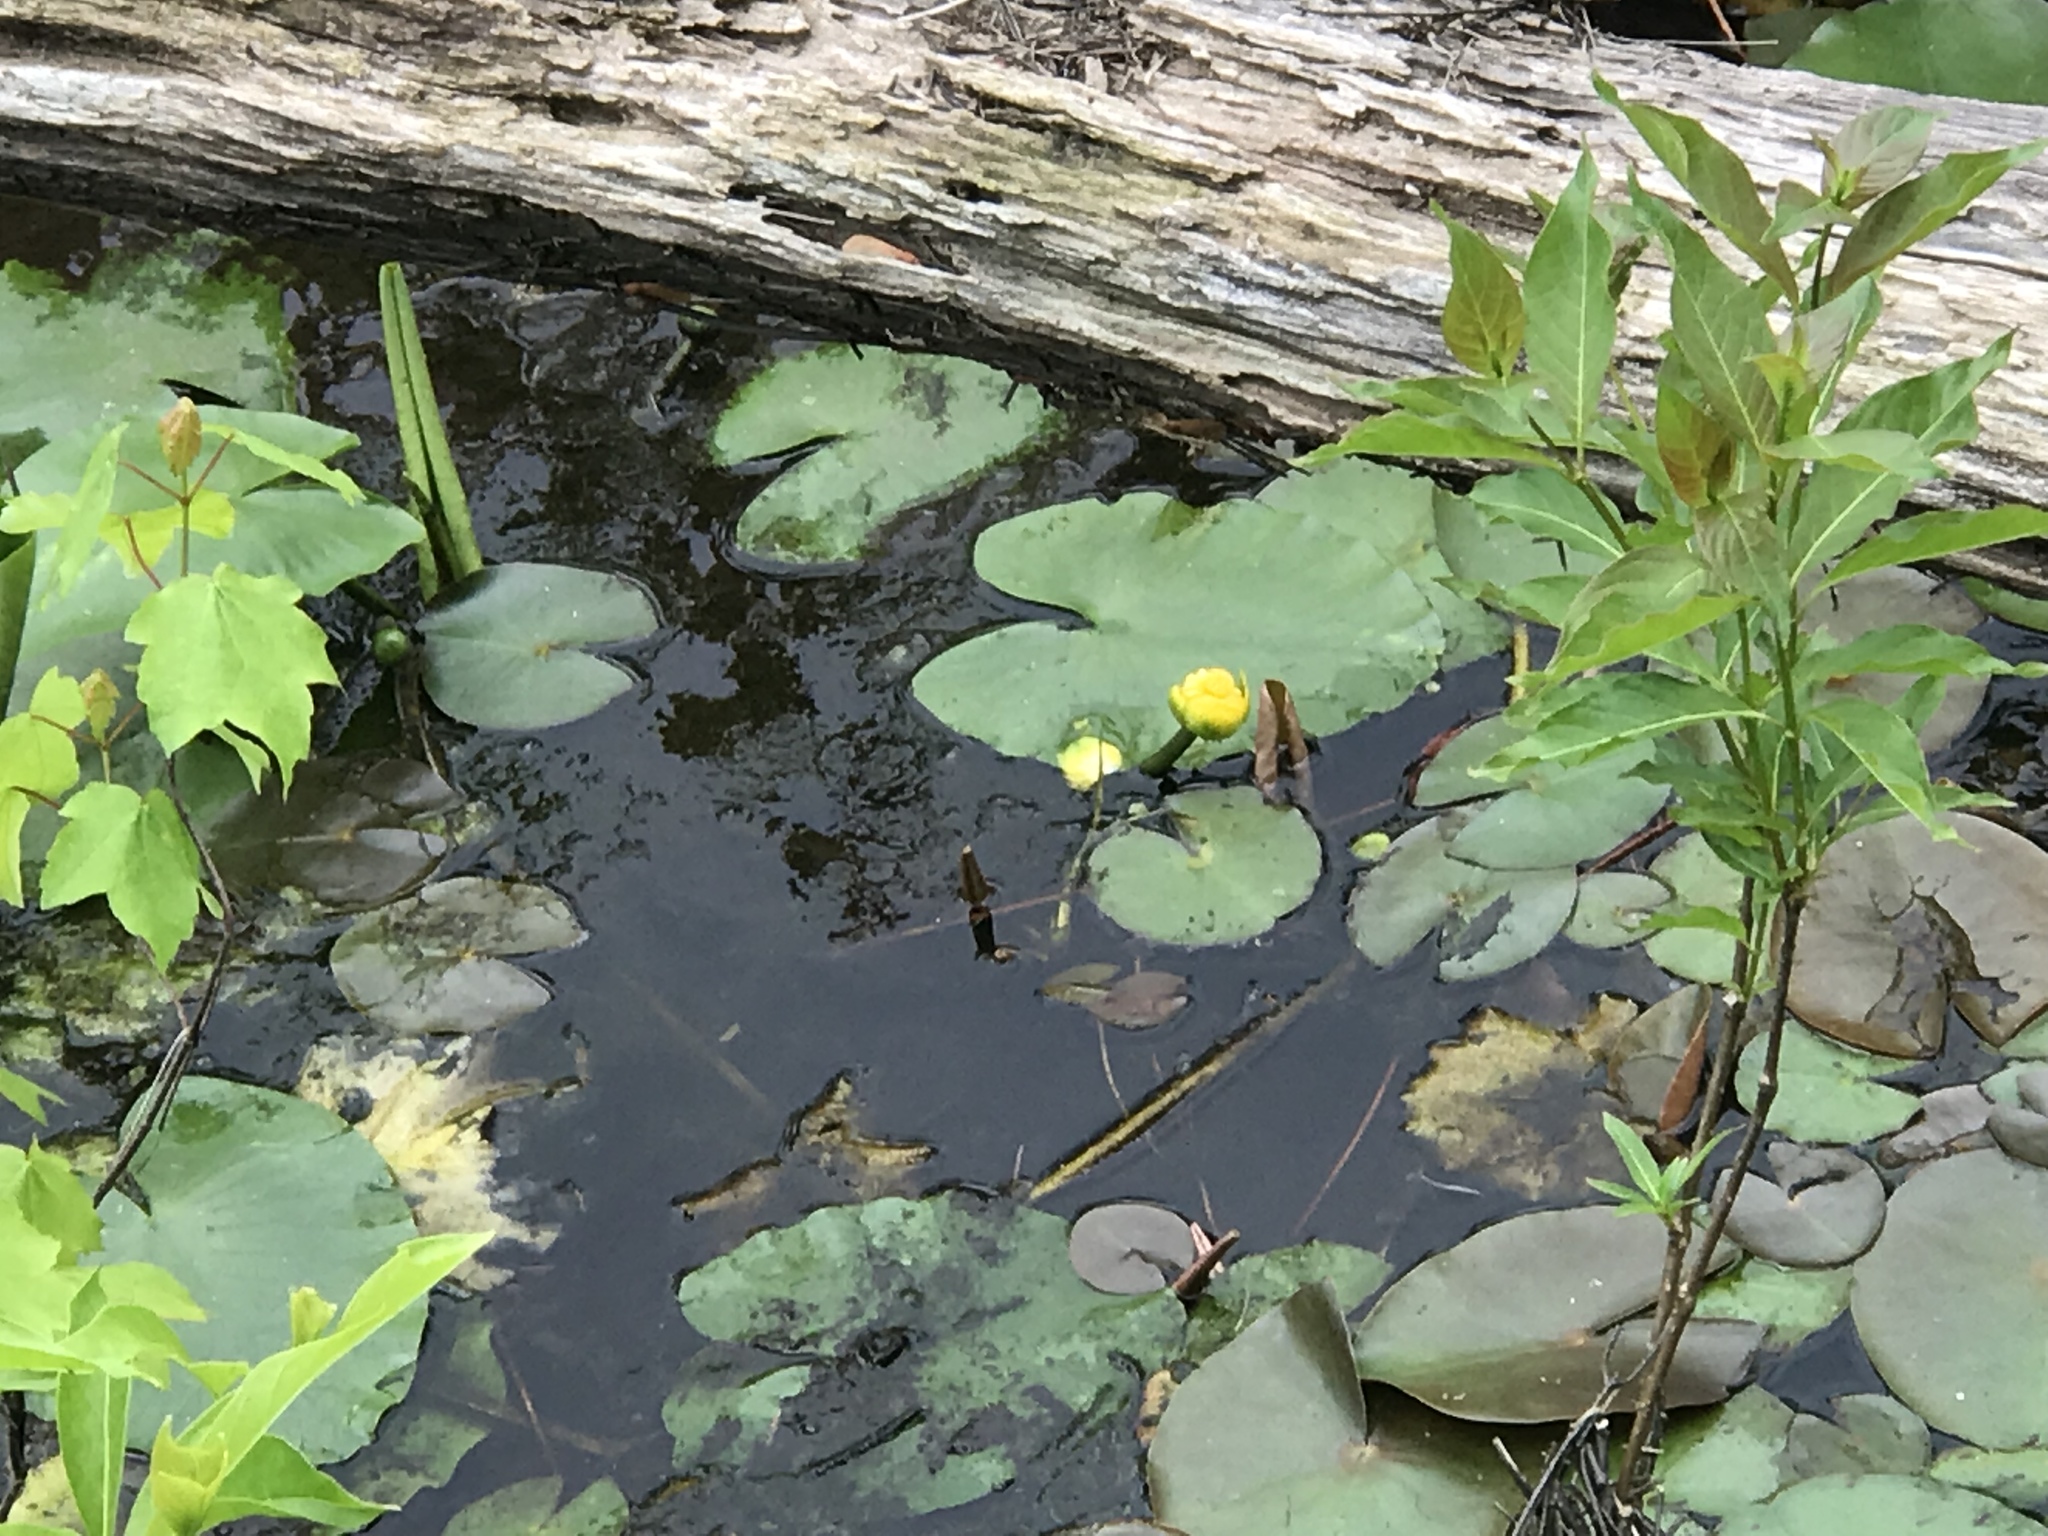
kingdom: Plantae
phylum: Tracheophyta
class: Magnoliopsida
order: Nymphaeales
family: Nymphaeaceae
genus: Nuphar
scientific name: Nuphar advena
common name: Spatter-dock
